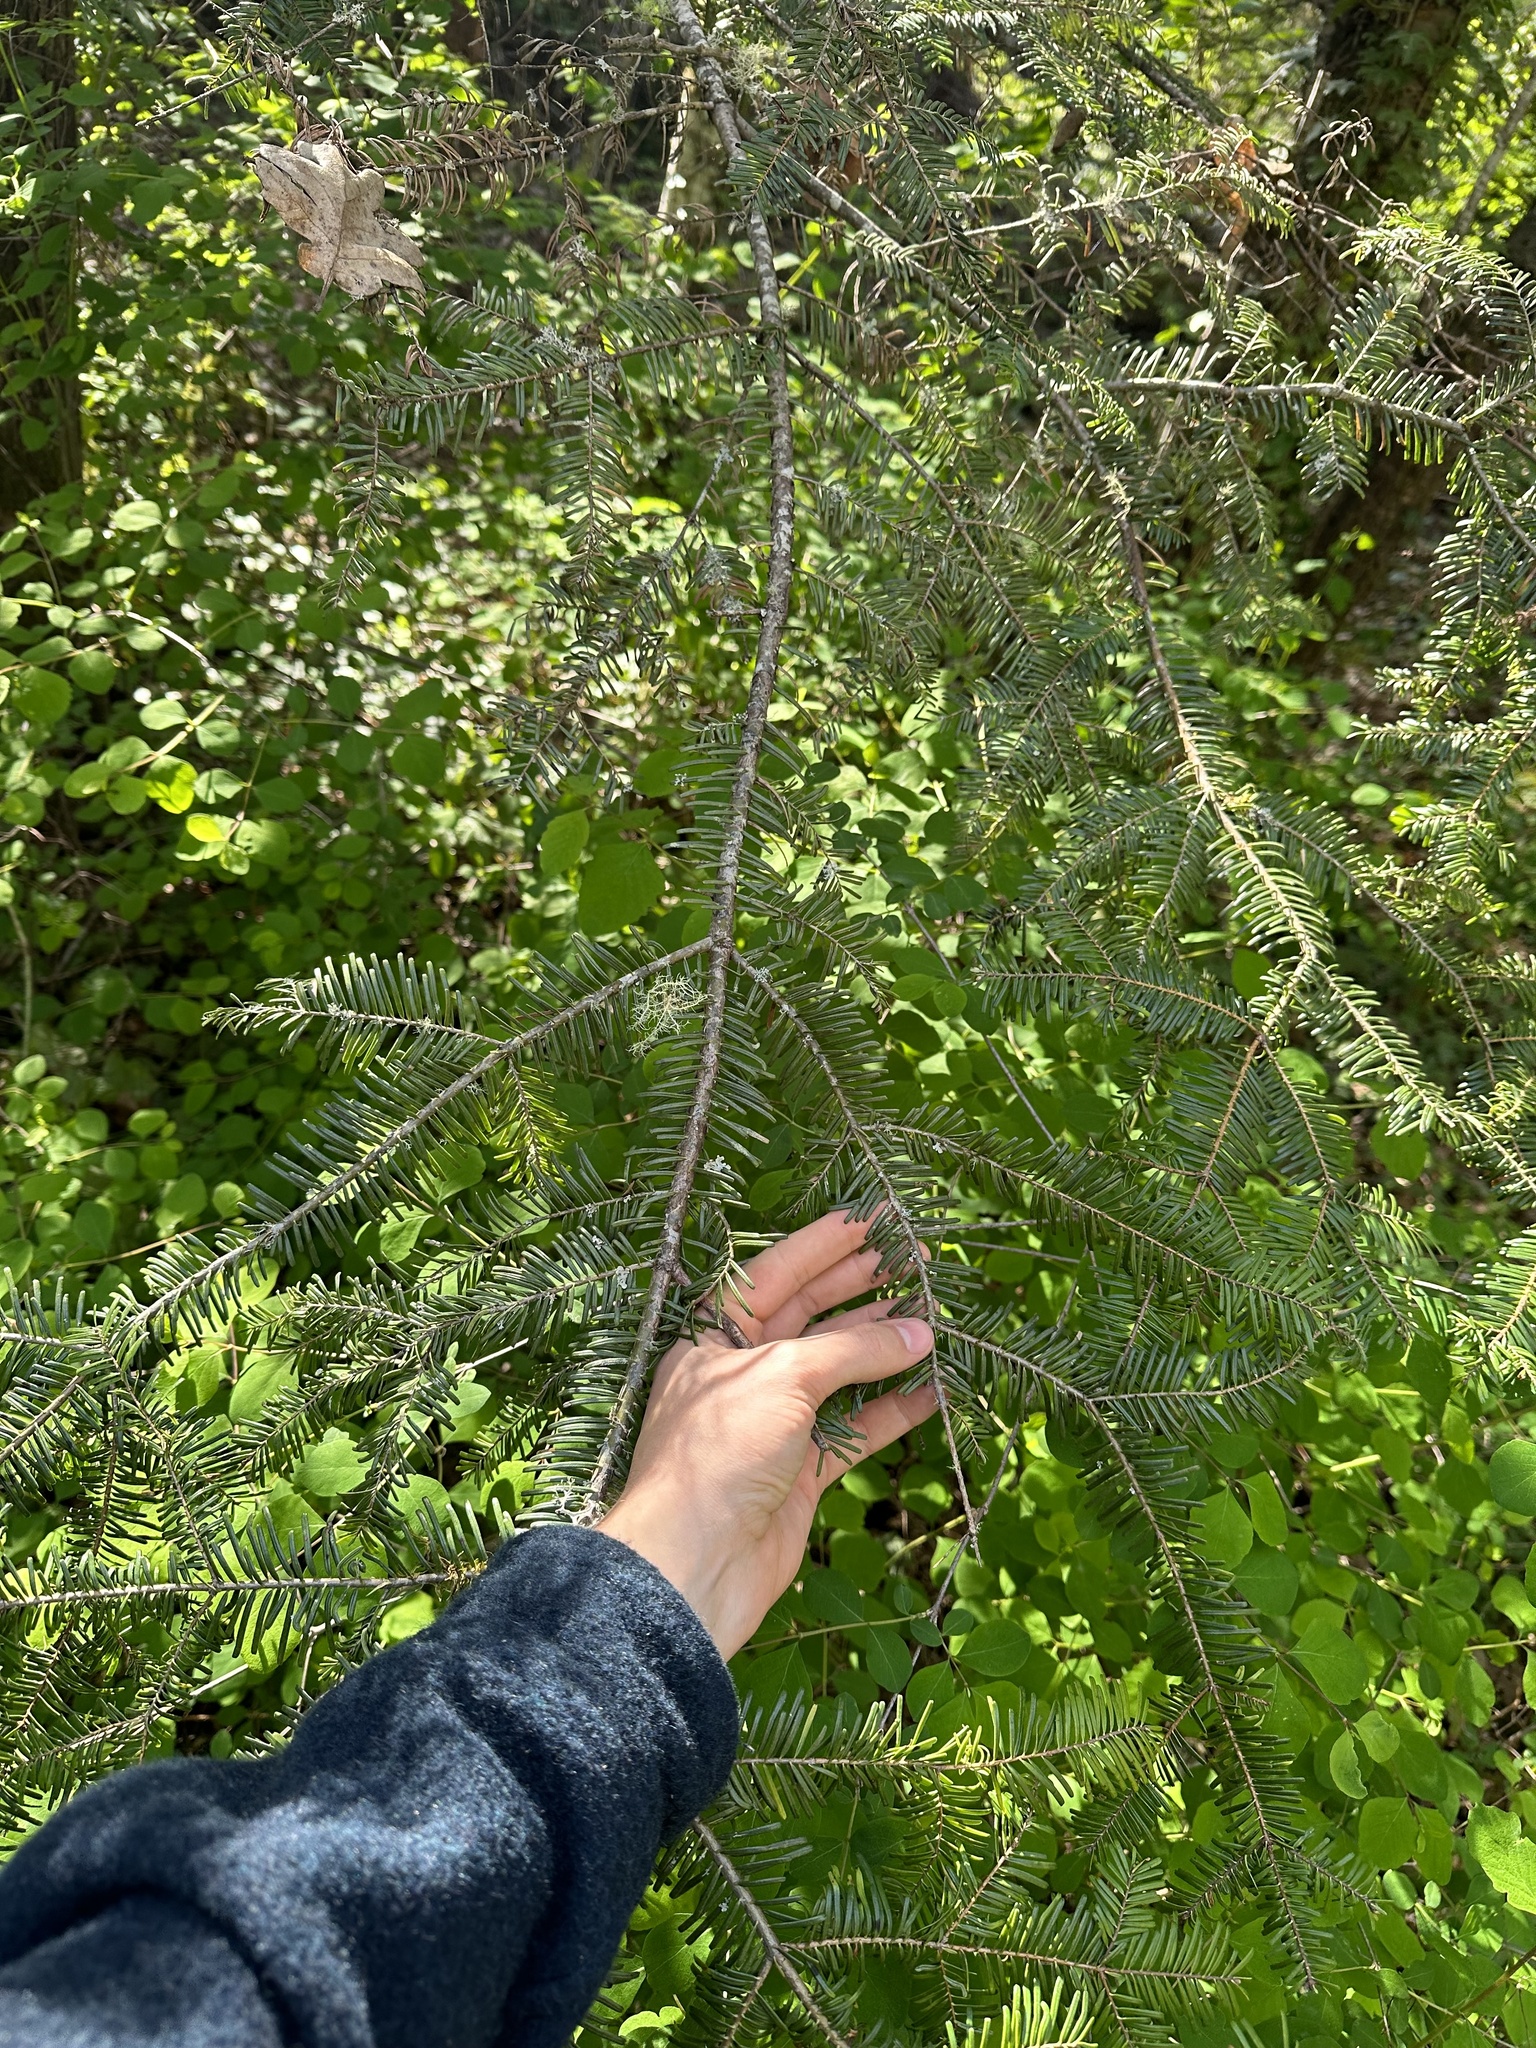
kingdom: Plantae
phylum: Tracheophyta
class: Pinopsida
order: Pinales
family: Pinaceae
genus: Abies
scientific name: Abies grandis
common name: Giant fir
